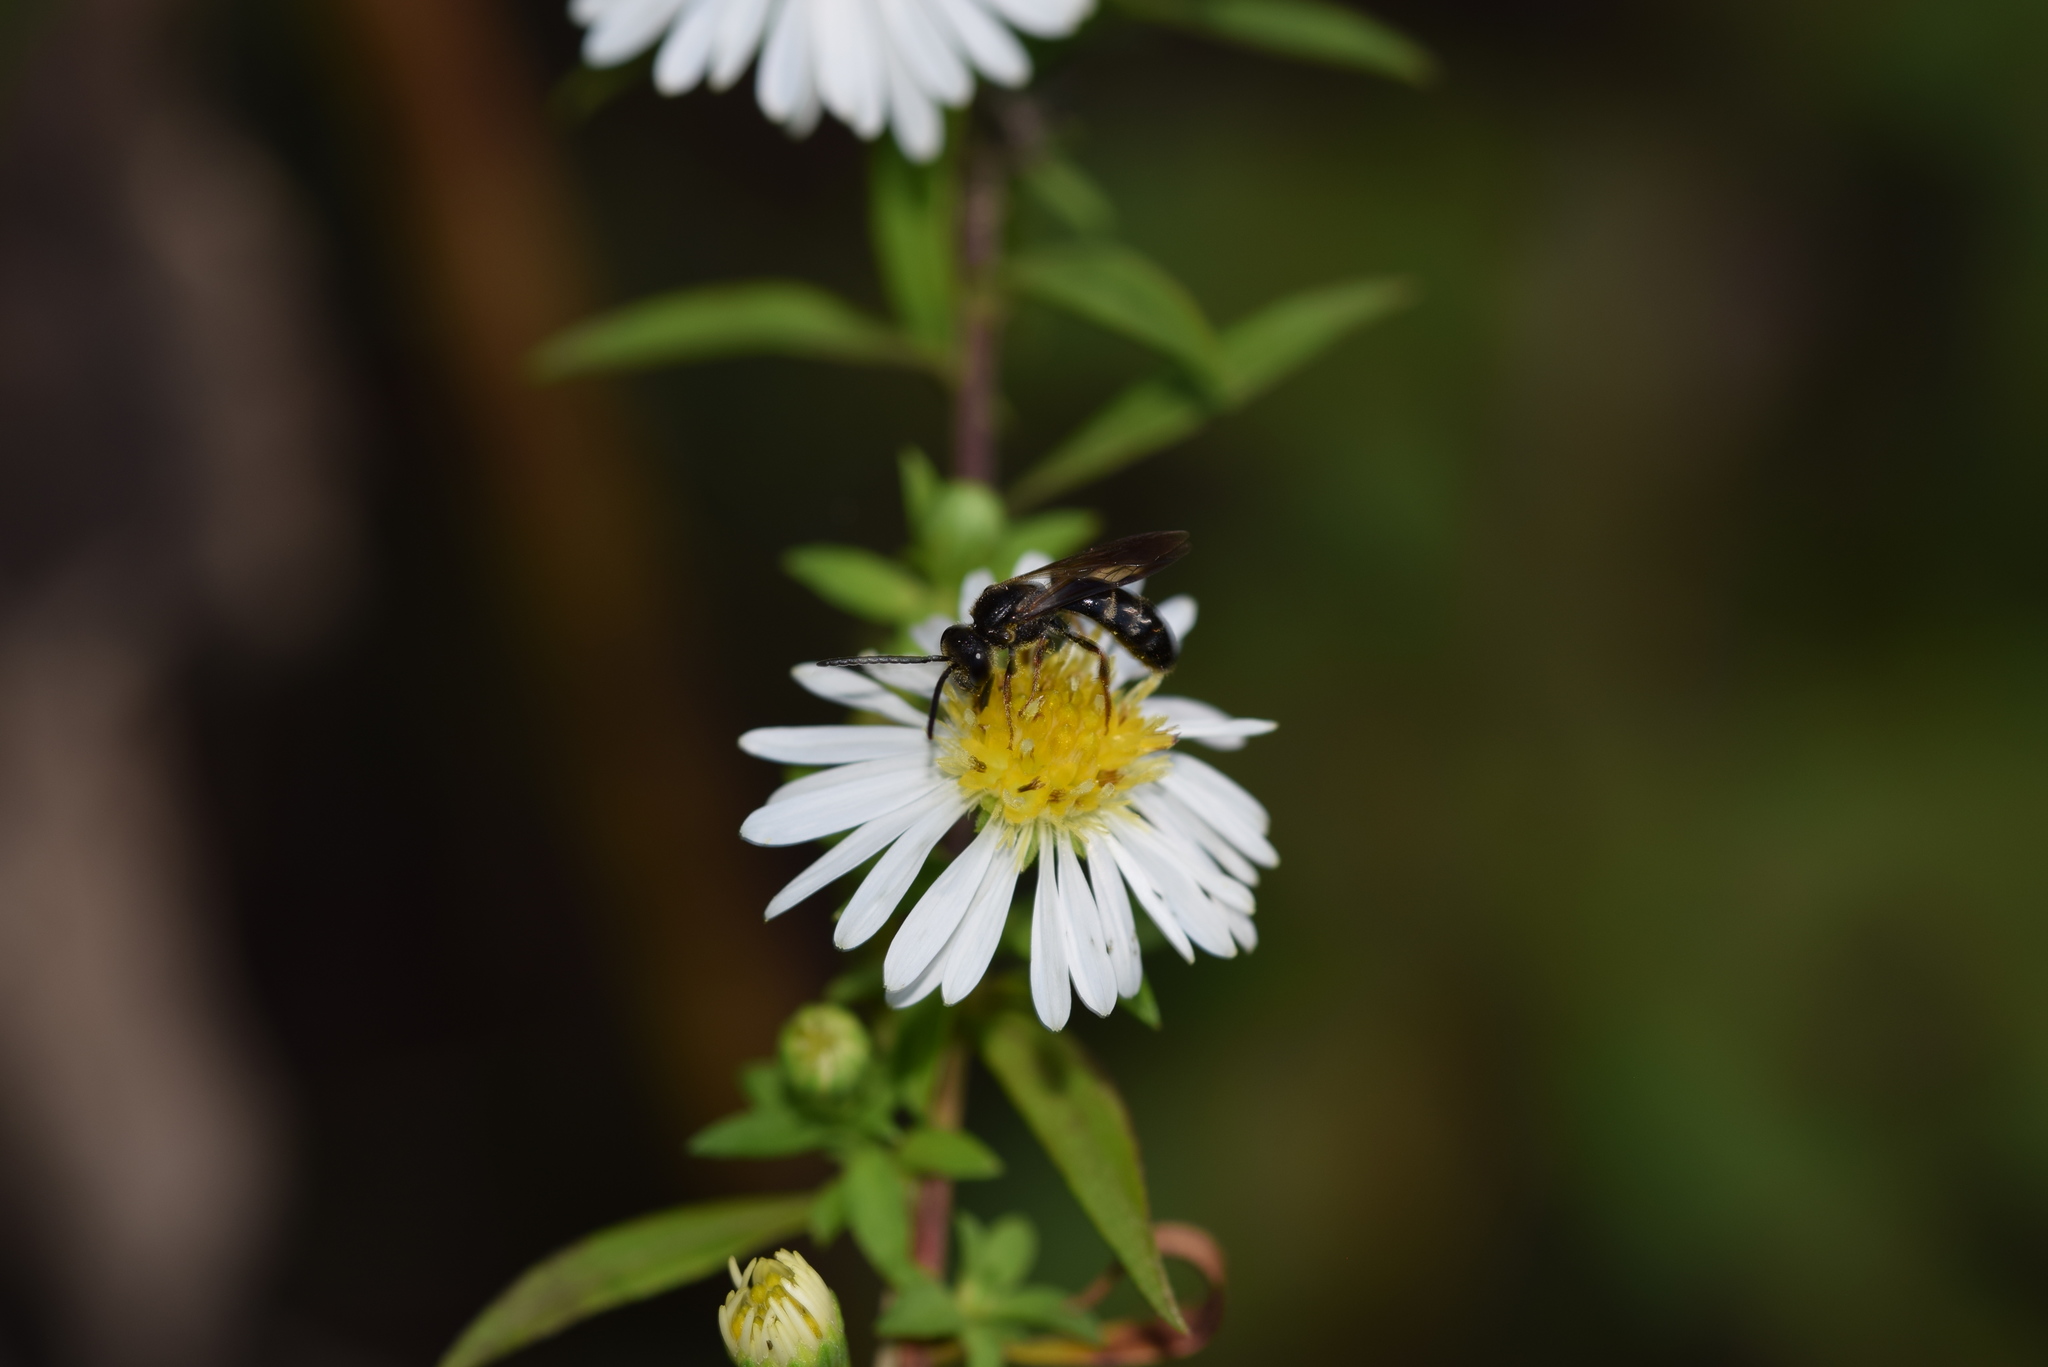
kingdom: Animalia
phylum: Arthropoda
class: Insecta
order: Hymenoptera
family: Halictidae
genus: Lasioglossum
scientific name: Lasioglossum fuscipenne
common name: Brown-winged sweat bee
